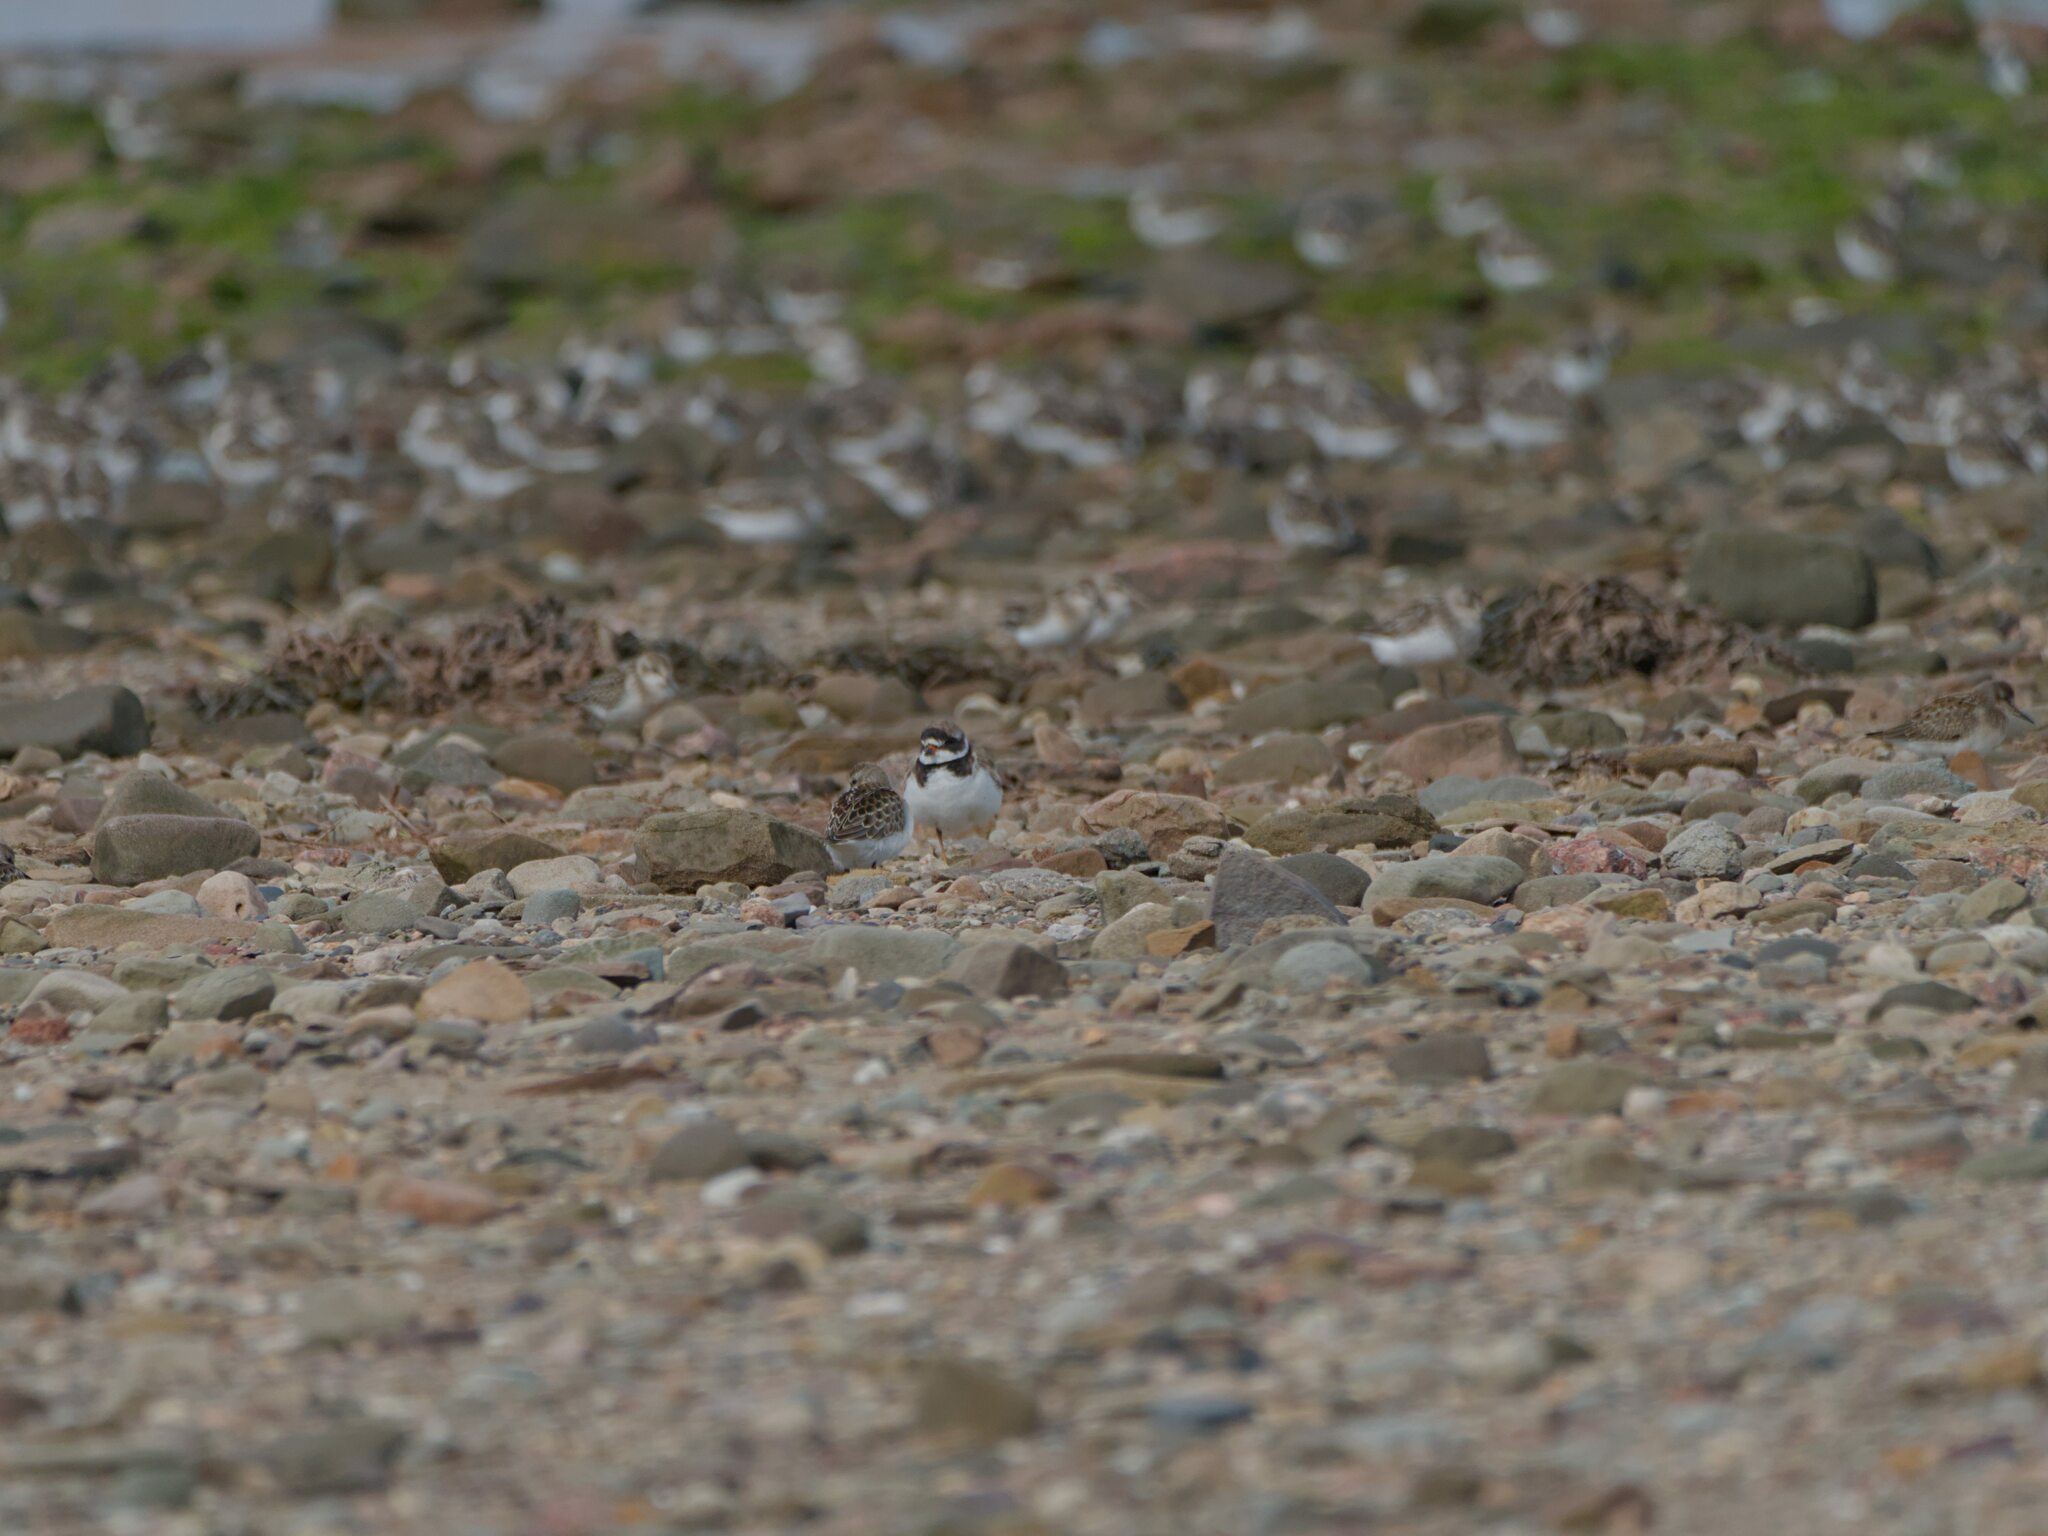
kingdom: Animalia
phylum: Chordata
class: Aves
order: Charadriiformes
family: Charadriidae
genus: Charadrius
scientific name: Charadrius semipalmatus
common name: Semipalmated plover
